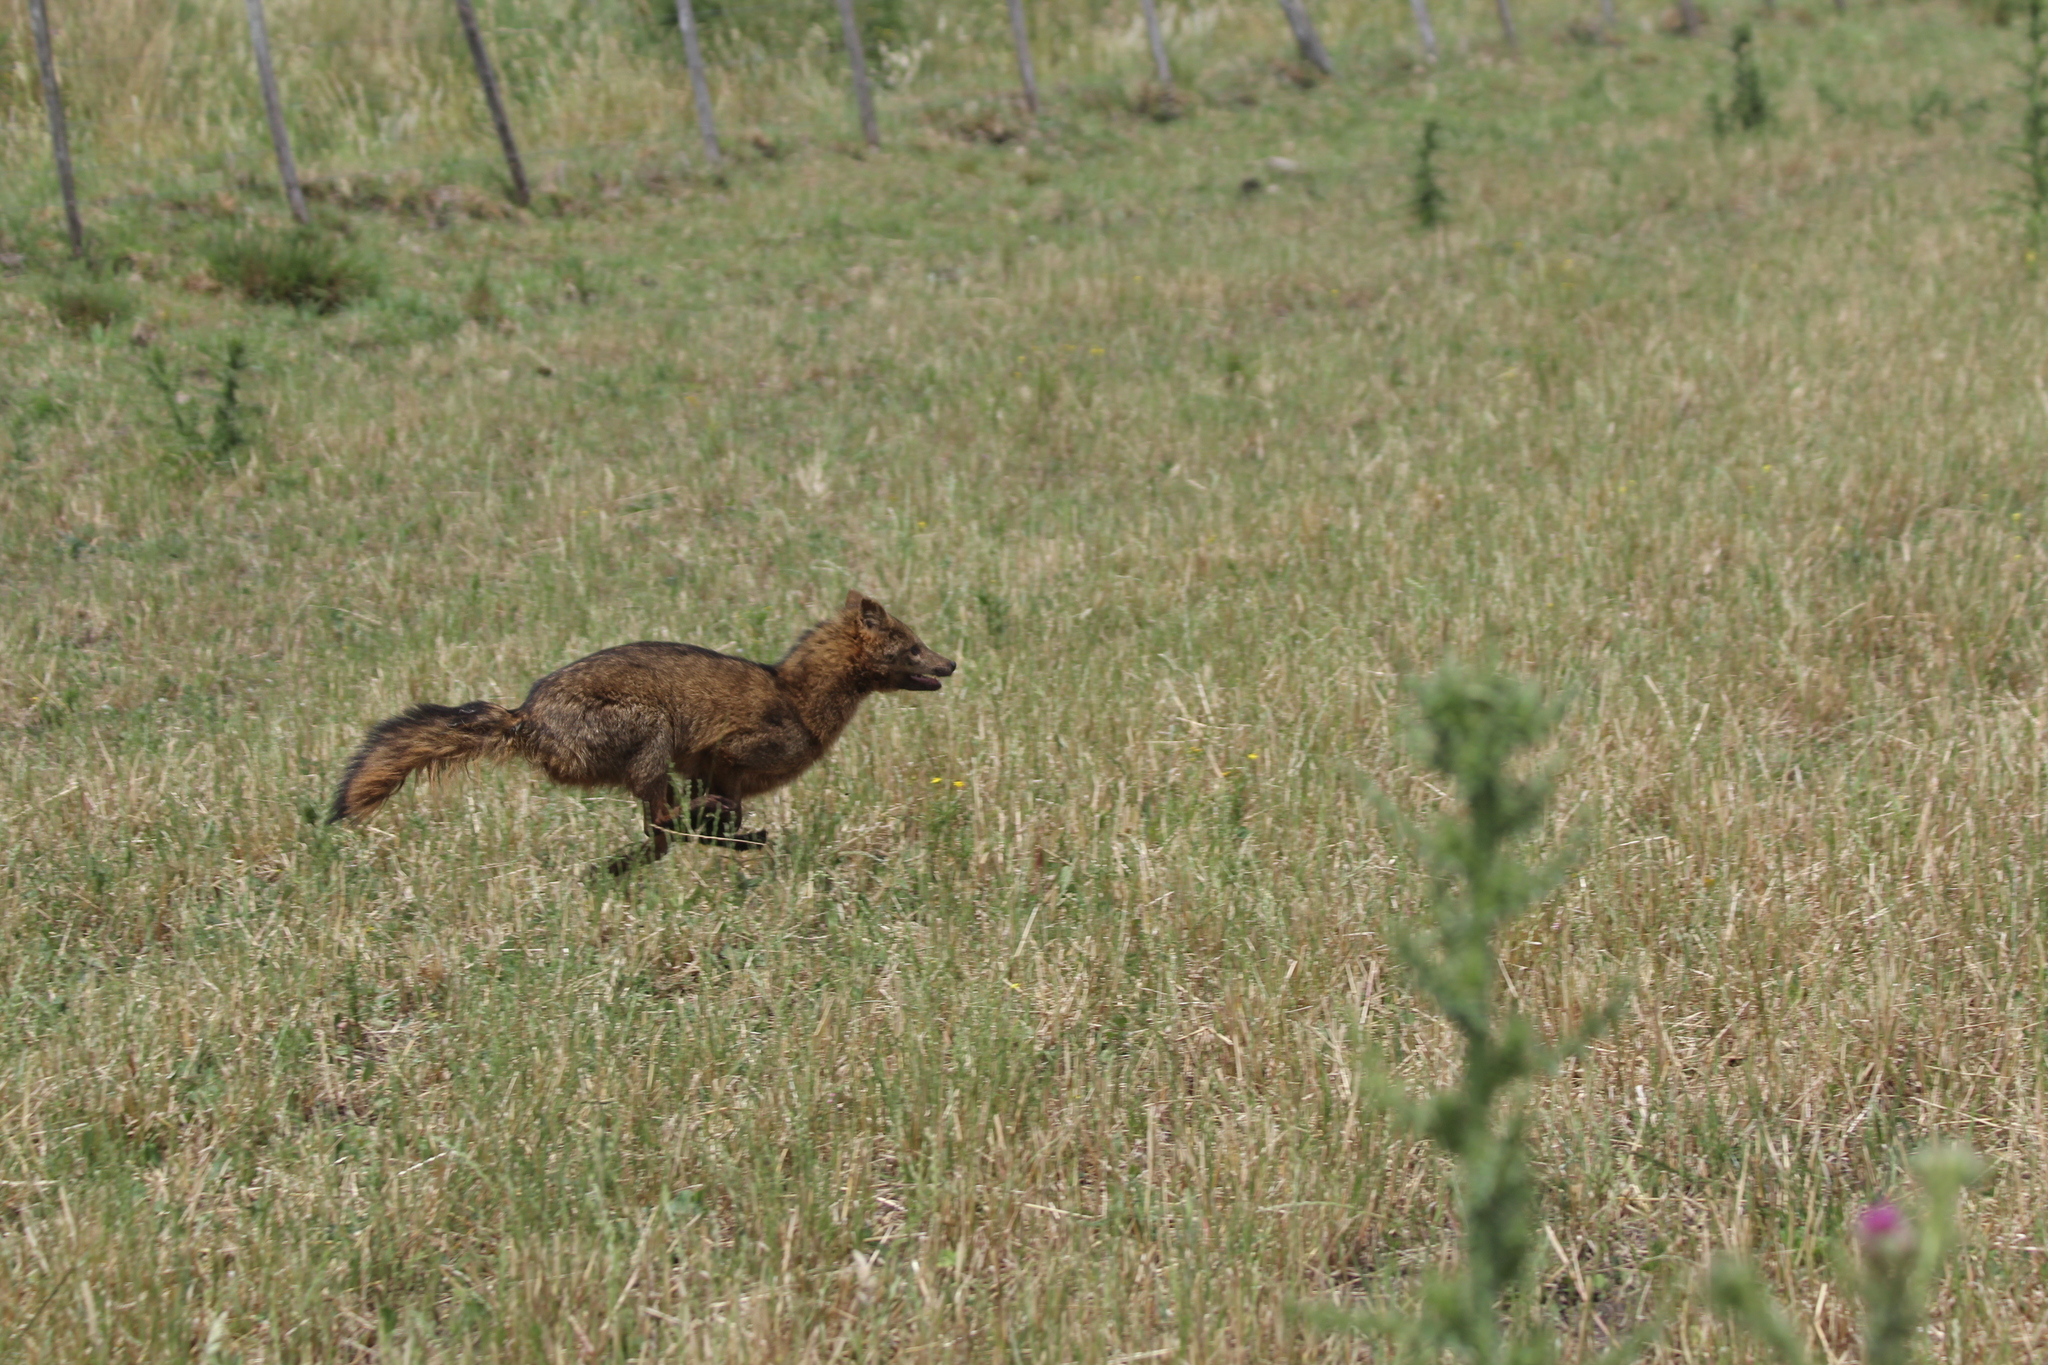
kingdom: Animalia
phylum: Chordata
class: Mammalia
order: Carnivora
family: Canidae
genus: Cerdocyon
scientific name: Cerdocyon thous
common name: Crab-eating fox
